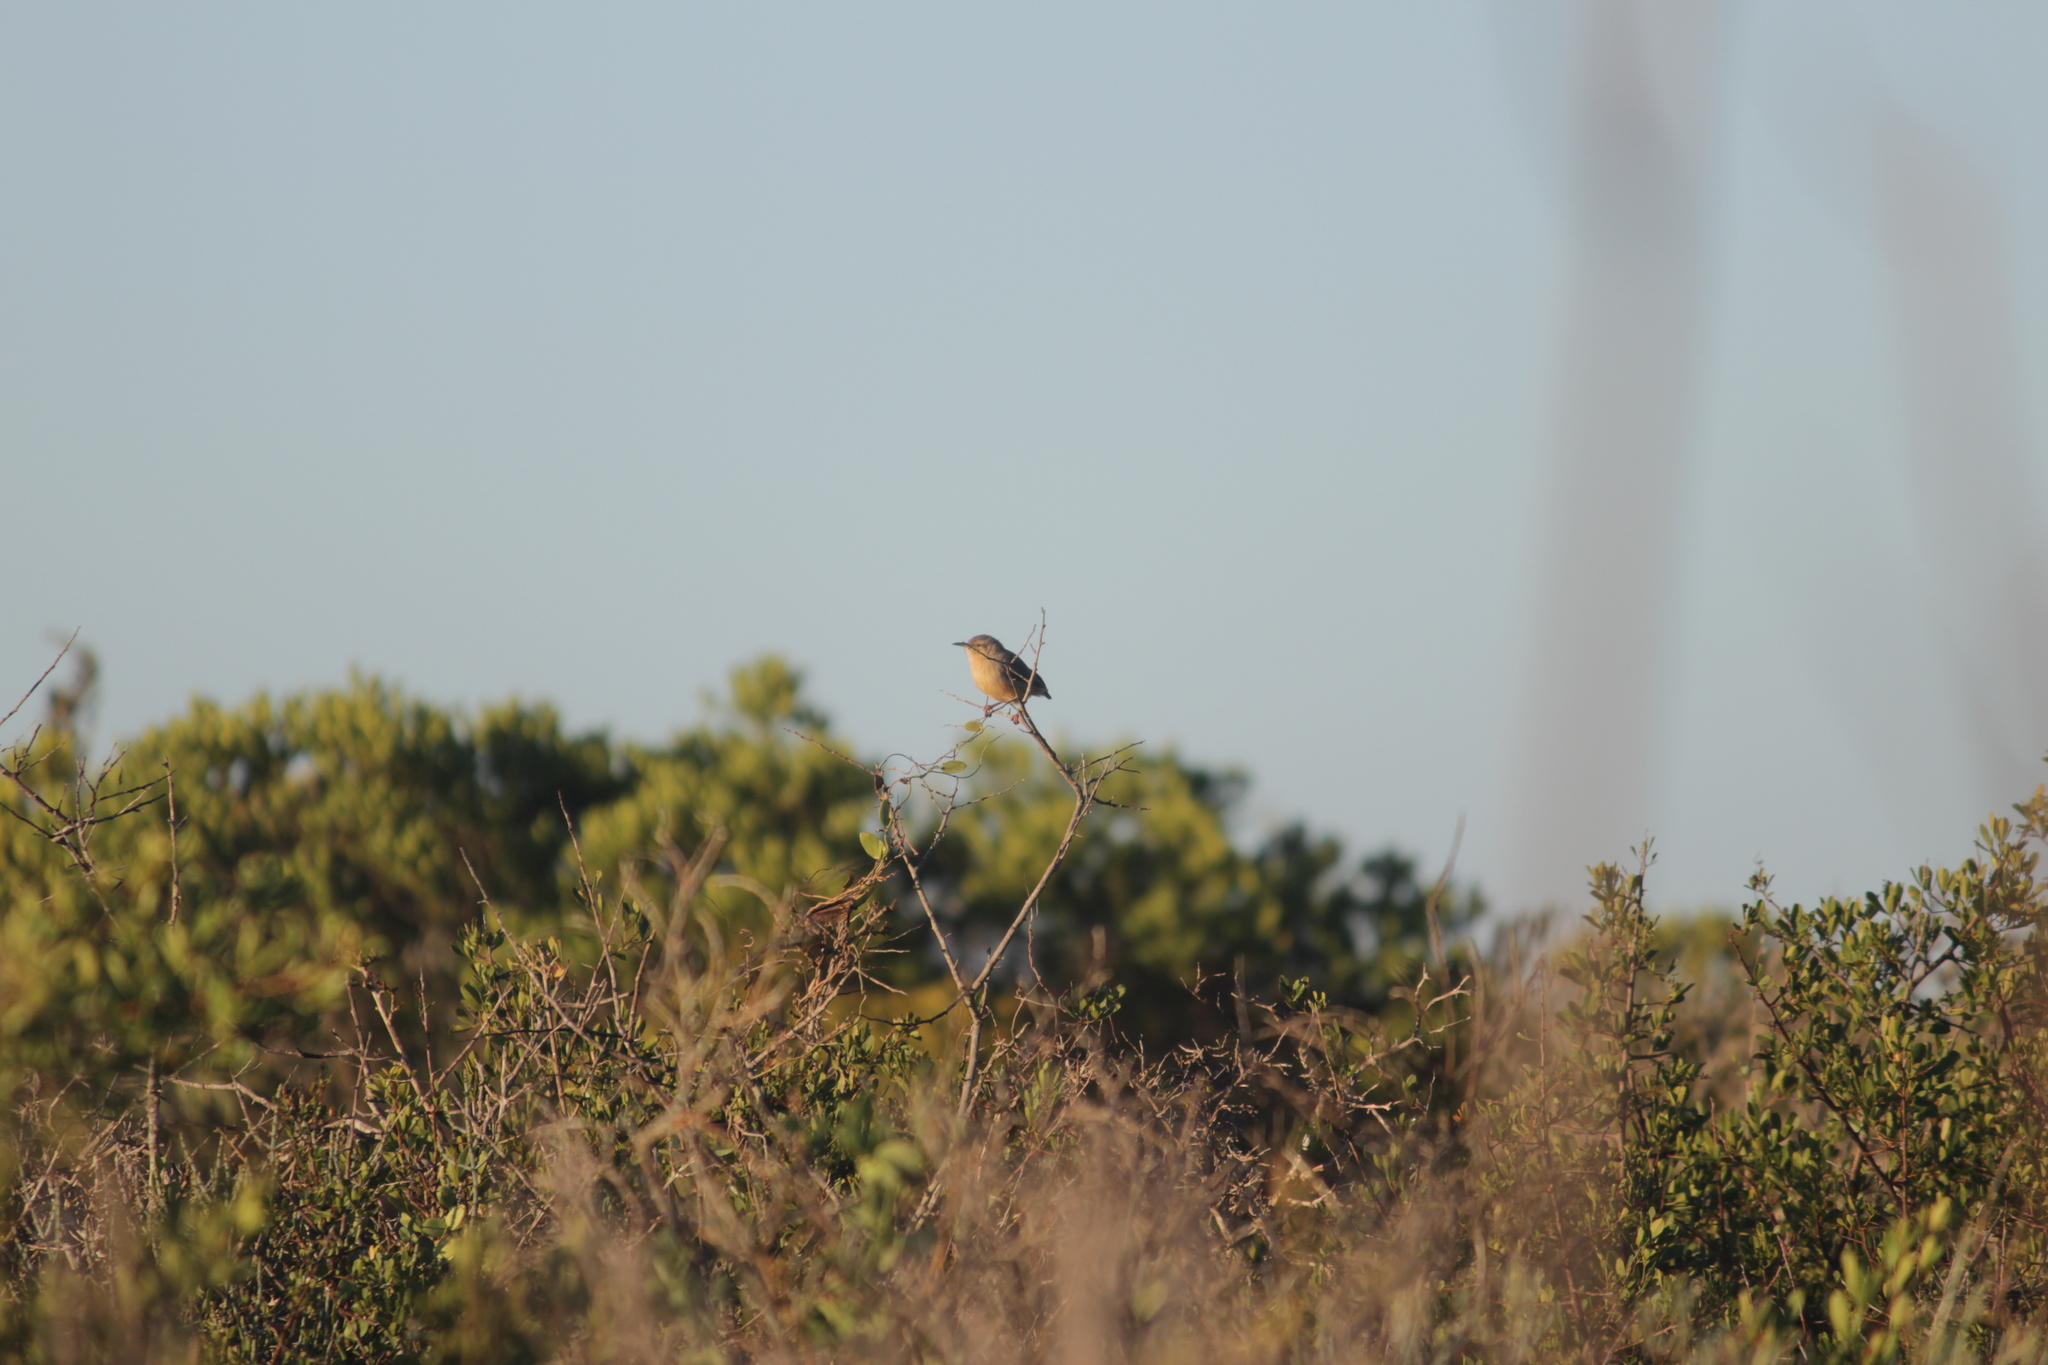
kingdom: Animalia
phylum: Chordata
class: Aves
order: Passeriformes
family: Macrosphenidae
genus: Sylvietta
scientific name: Sylvietta rufescens
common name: Long-billed crombec
